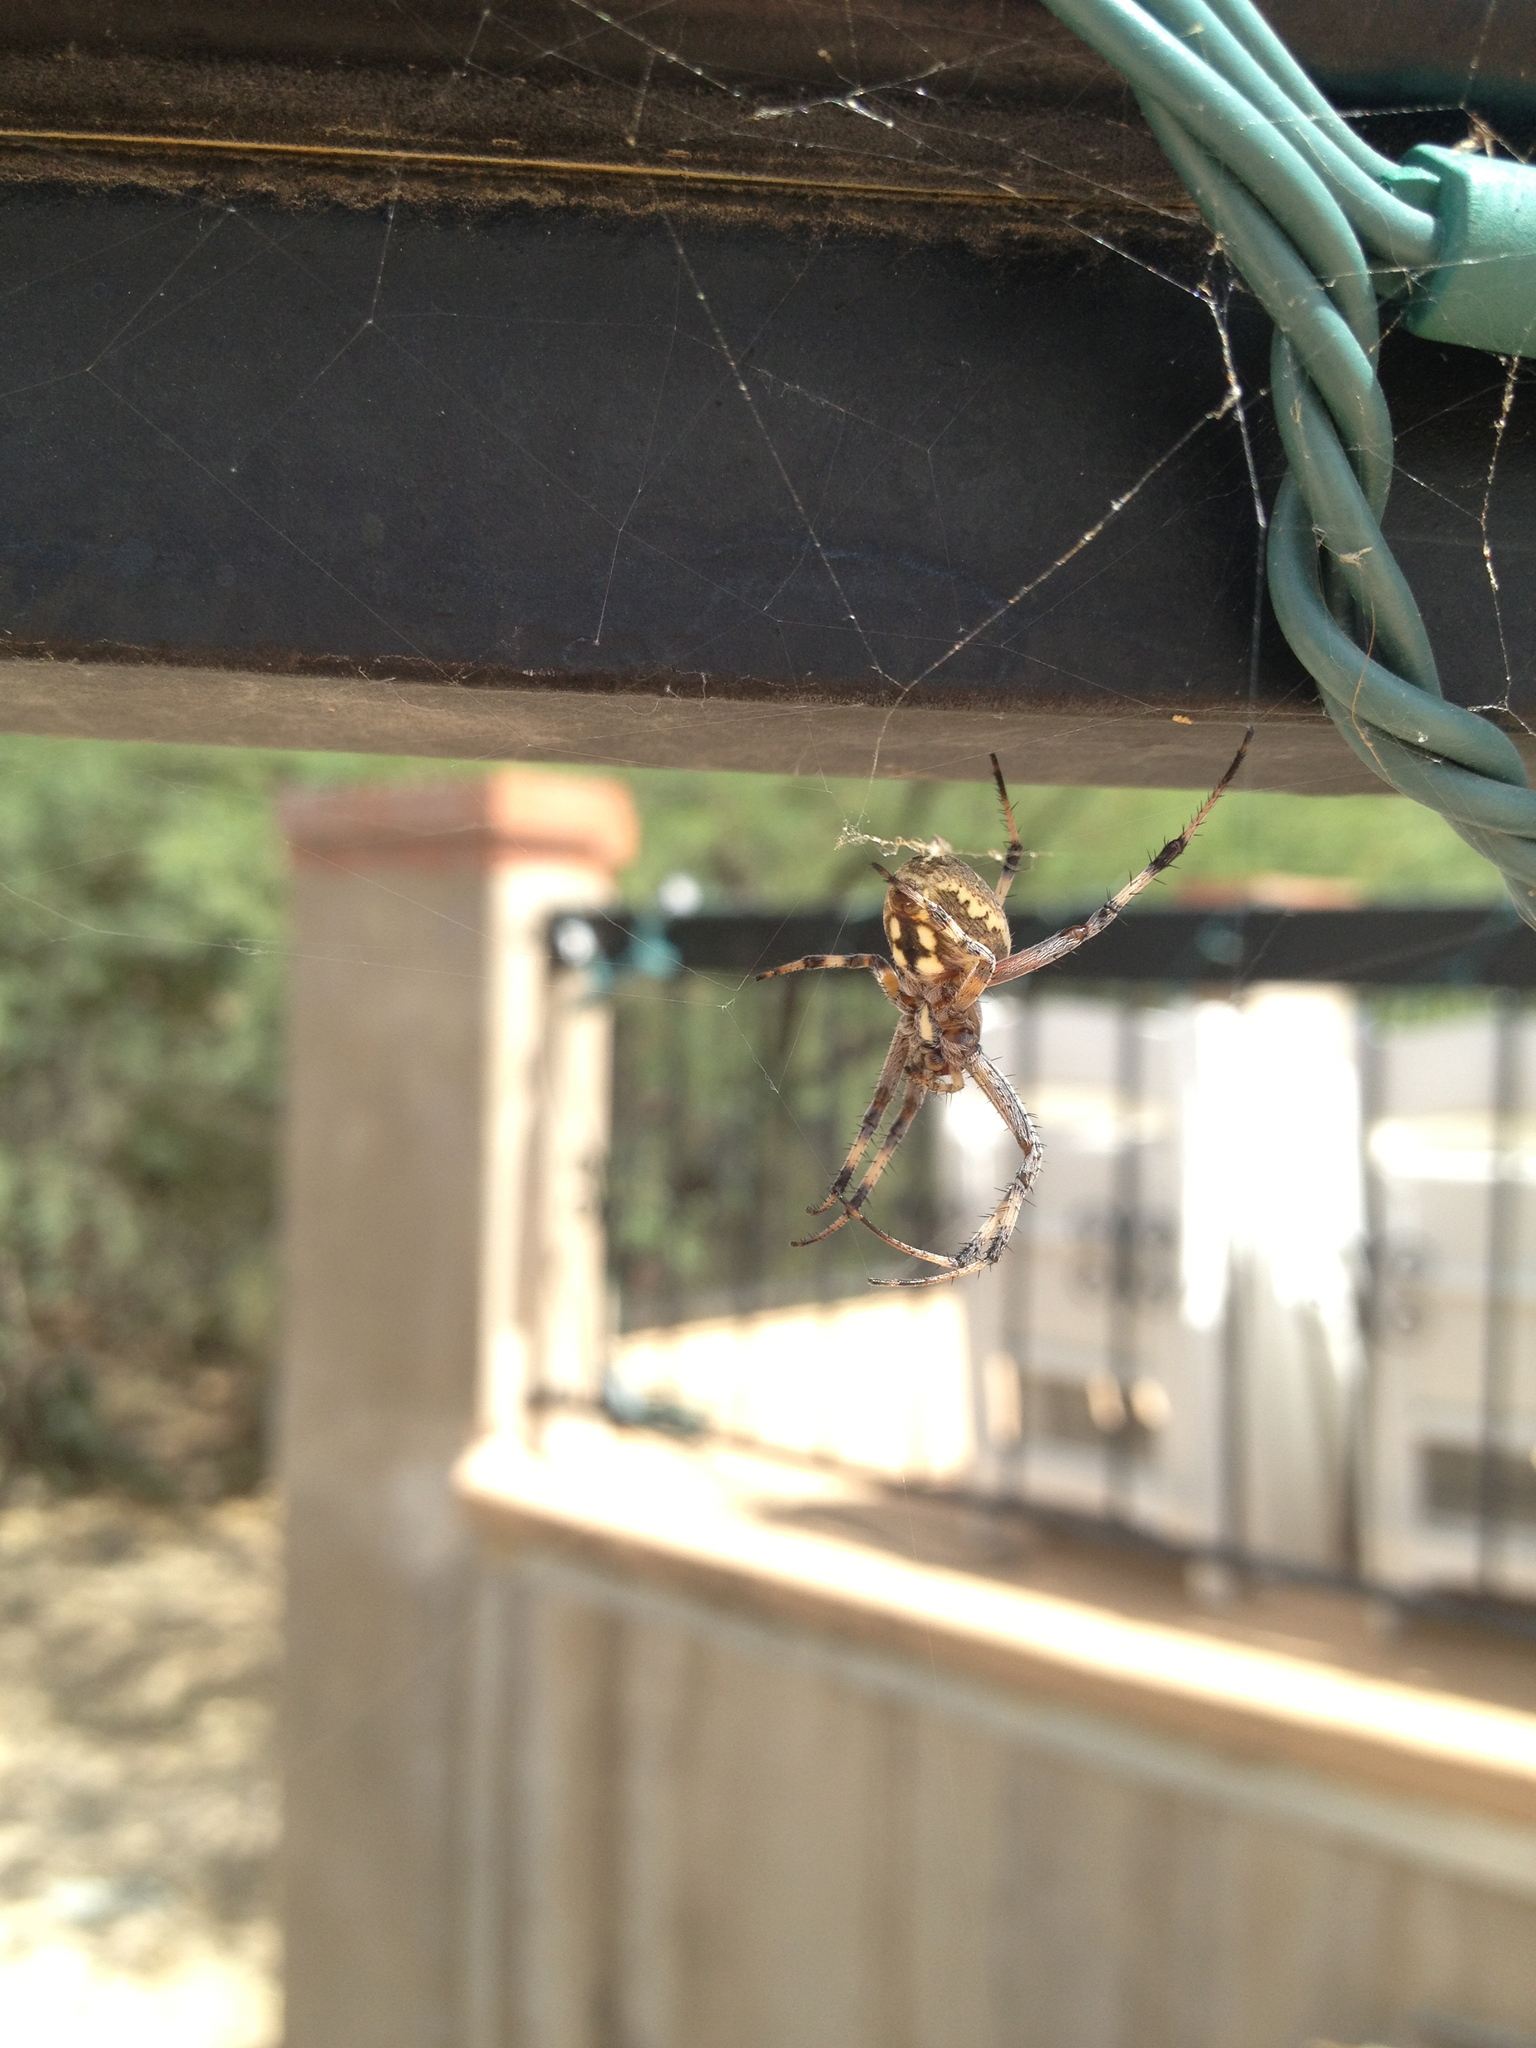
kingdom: Animalia
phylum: Arthropoda
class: Arachnida
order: Araneae
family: Araneidae
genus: Neoscona
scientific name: Neoscona oaxacensis
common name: Orb weavers
